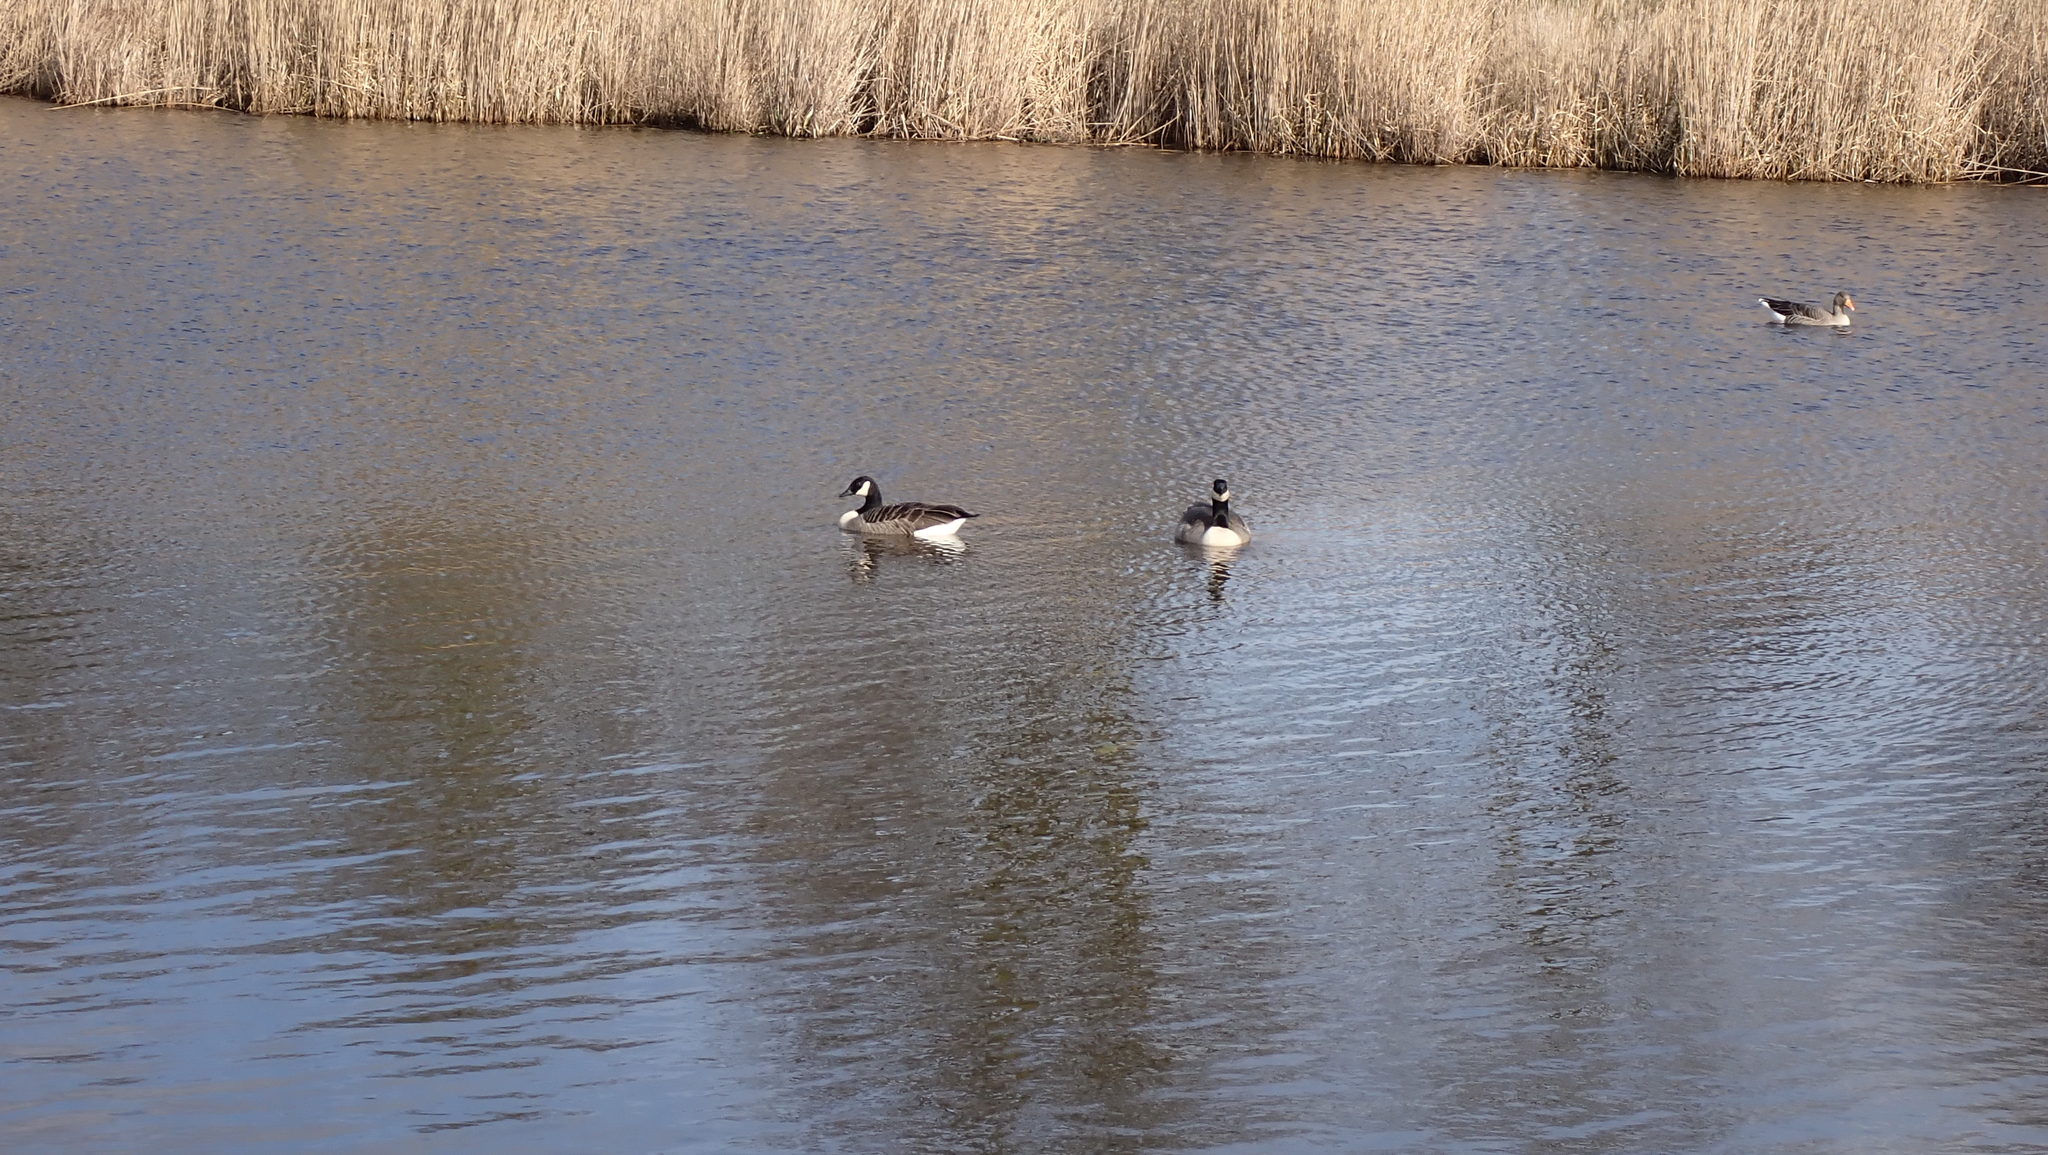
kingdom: Animalia
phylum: Chordata
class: Aves
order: Anseriformes
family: Anatidae
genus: Branta
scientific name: Branta canadensis
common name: Canada goose
